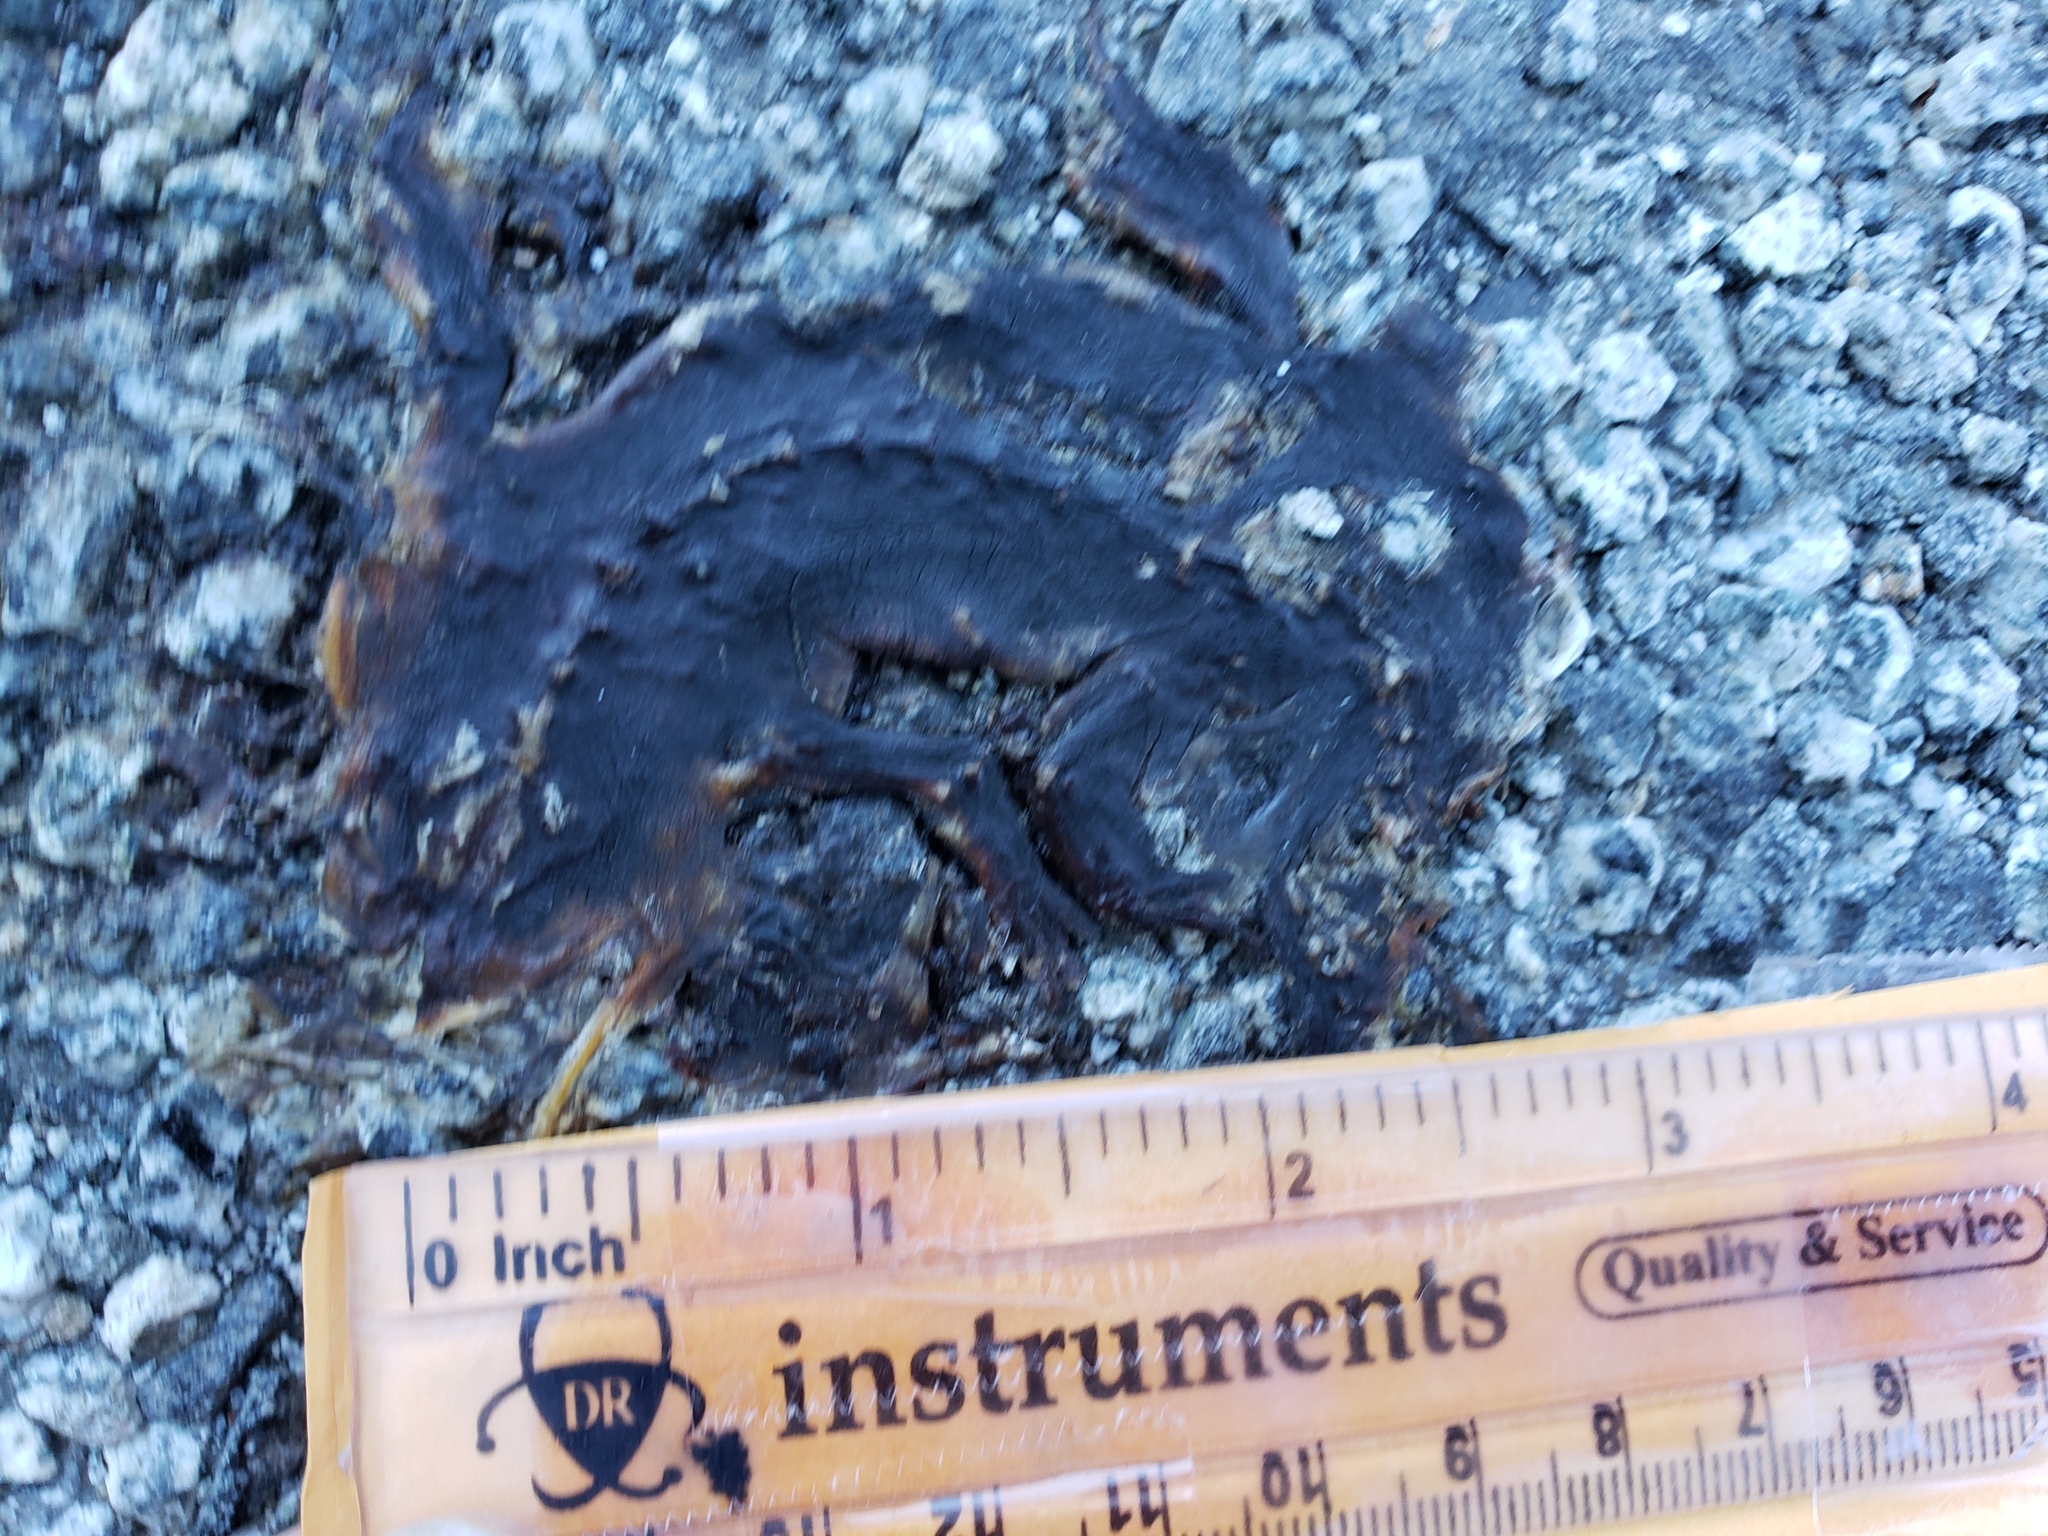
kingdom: Animalia
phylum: Chordata
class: Amphibia
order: Caudata
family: Salamandridae
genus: Taricha
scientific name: Taricha
